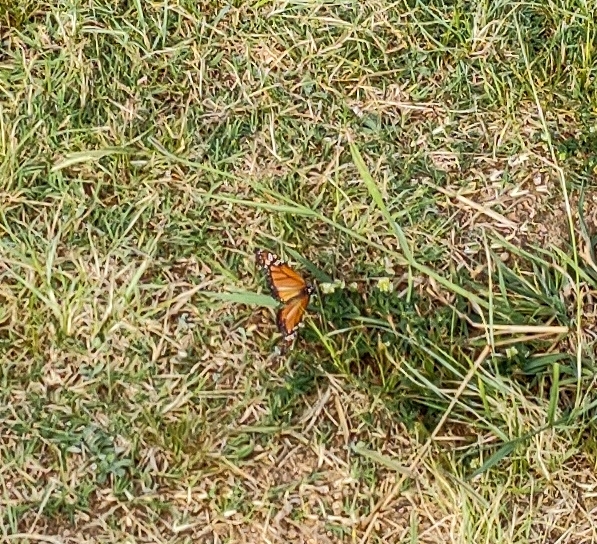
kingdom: Animalia
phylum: Arthropoda
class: Insecta
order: Lepidoptera
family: Nymphalidae
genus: Danaus
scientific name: Danaus erippus
